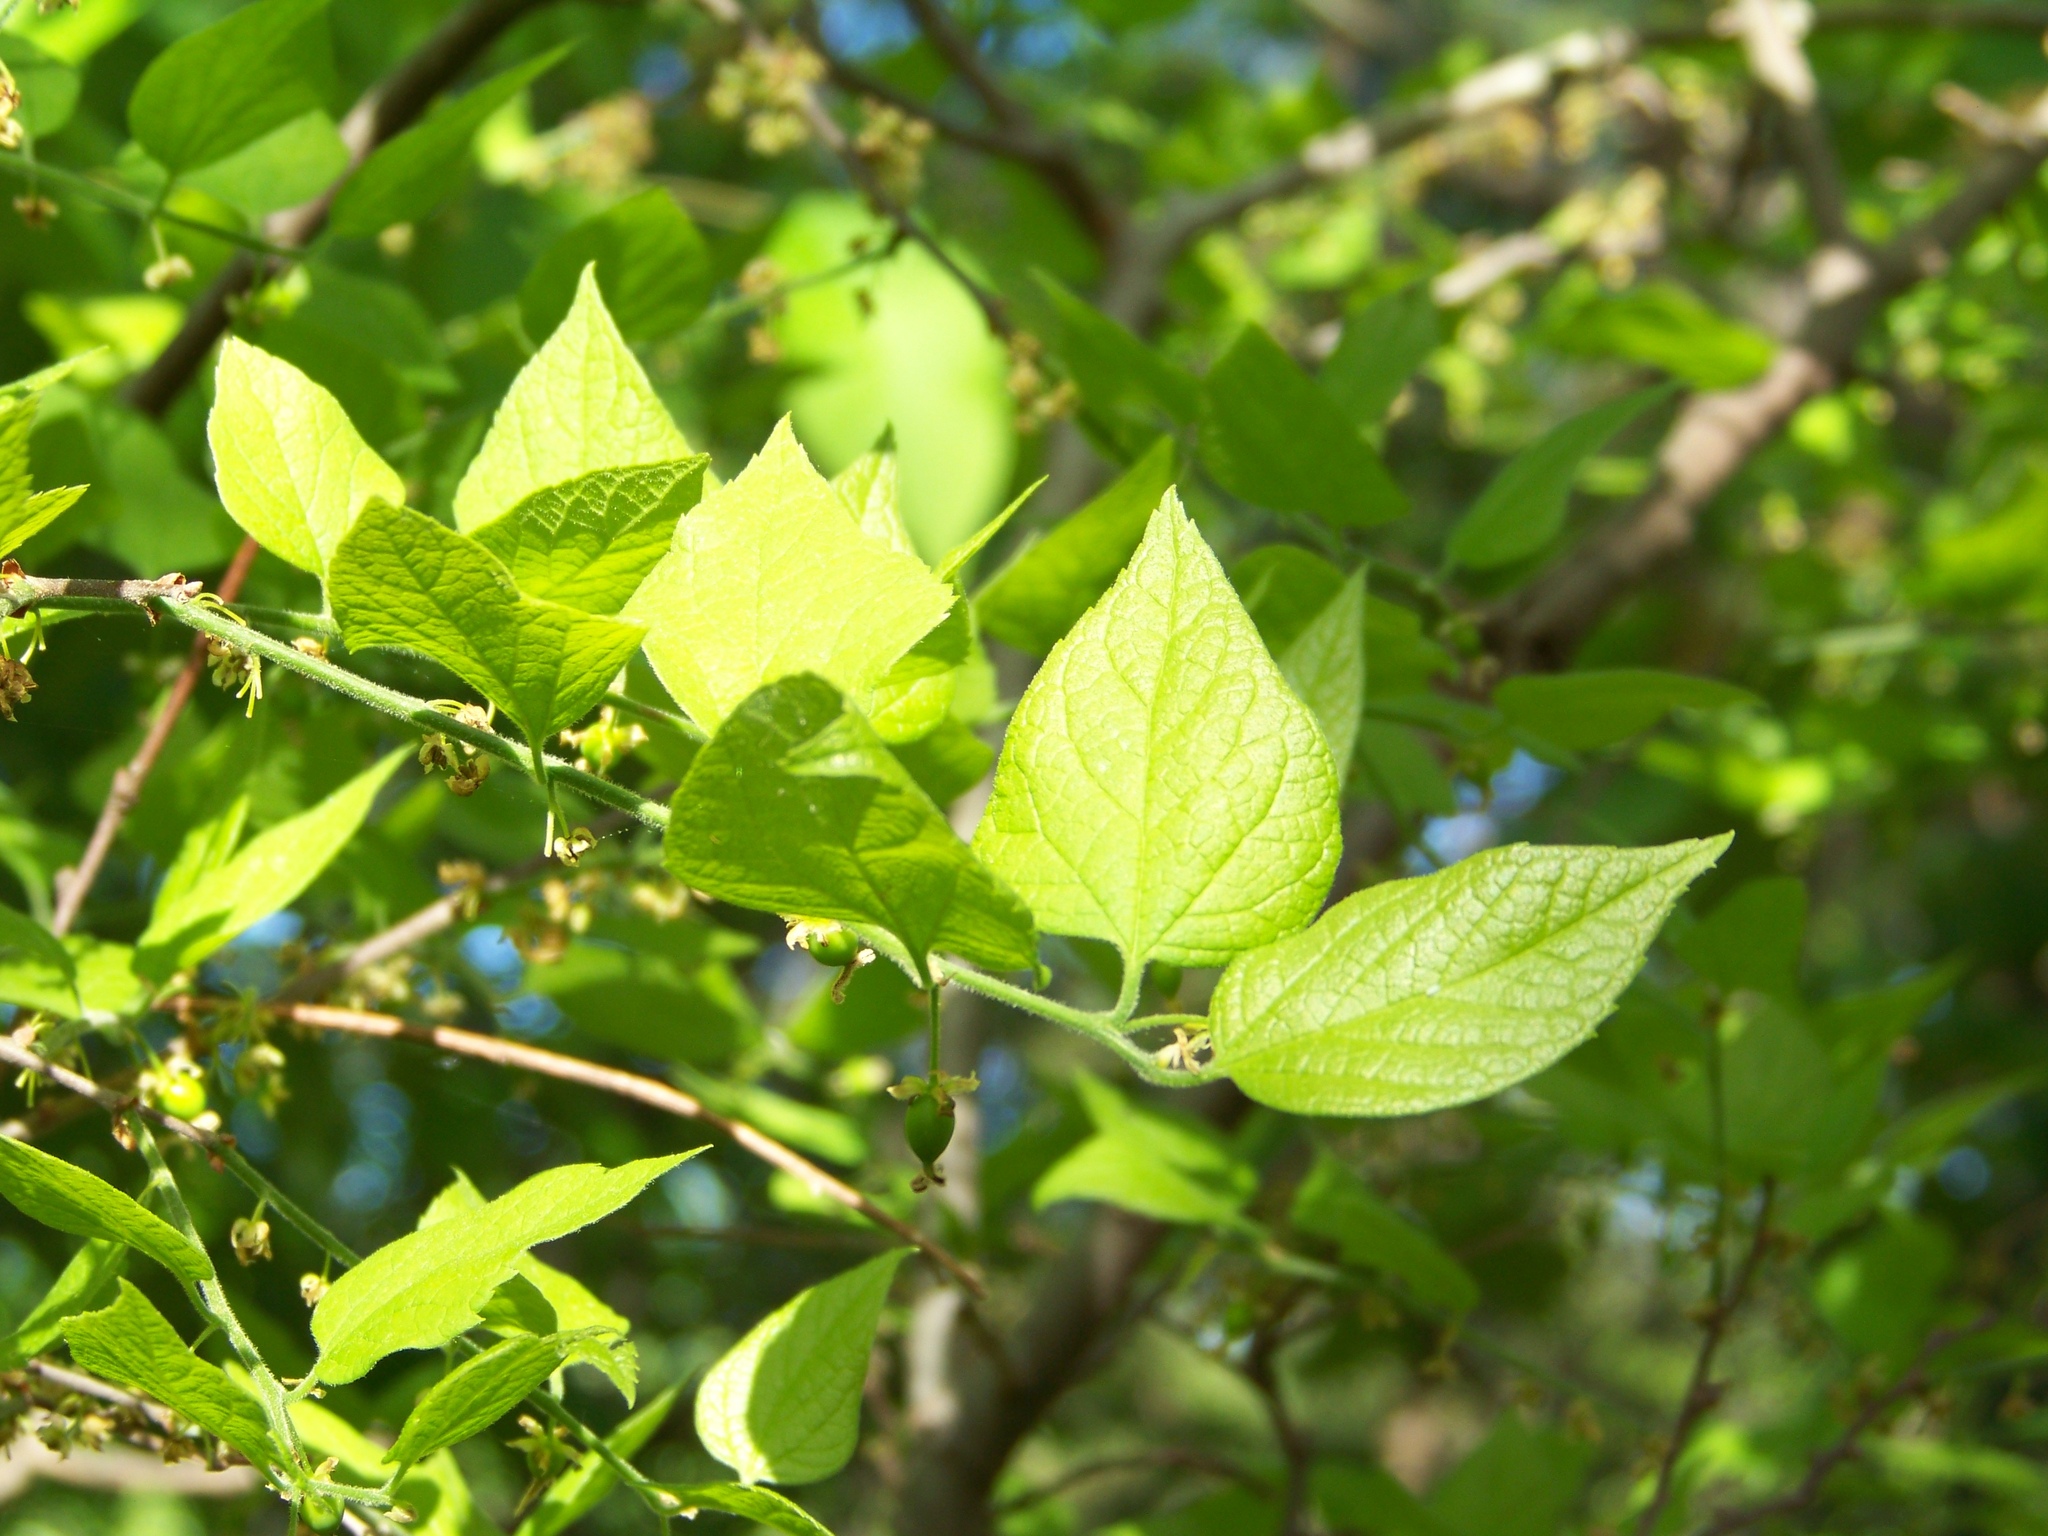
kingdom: Plantae
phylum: Tracheophyta
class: Magnoliopsida
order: Rosales
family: Cannabaceae
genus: Celtis
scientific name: Celtis tenuifolia
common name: Georgia hackberry
